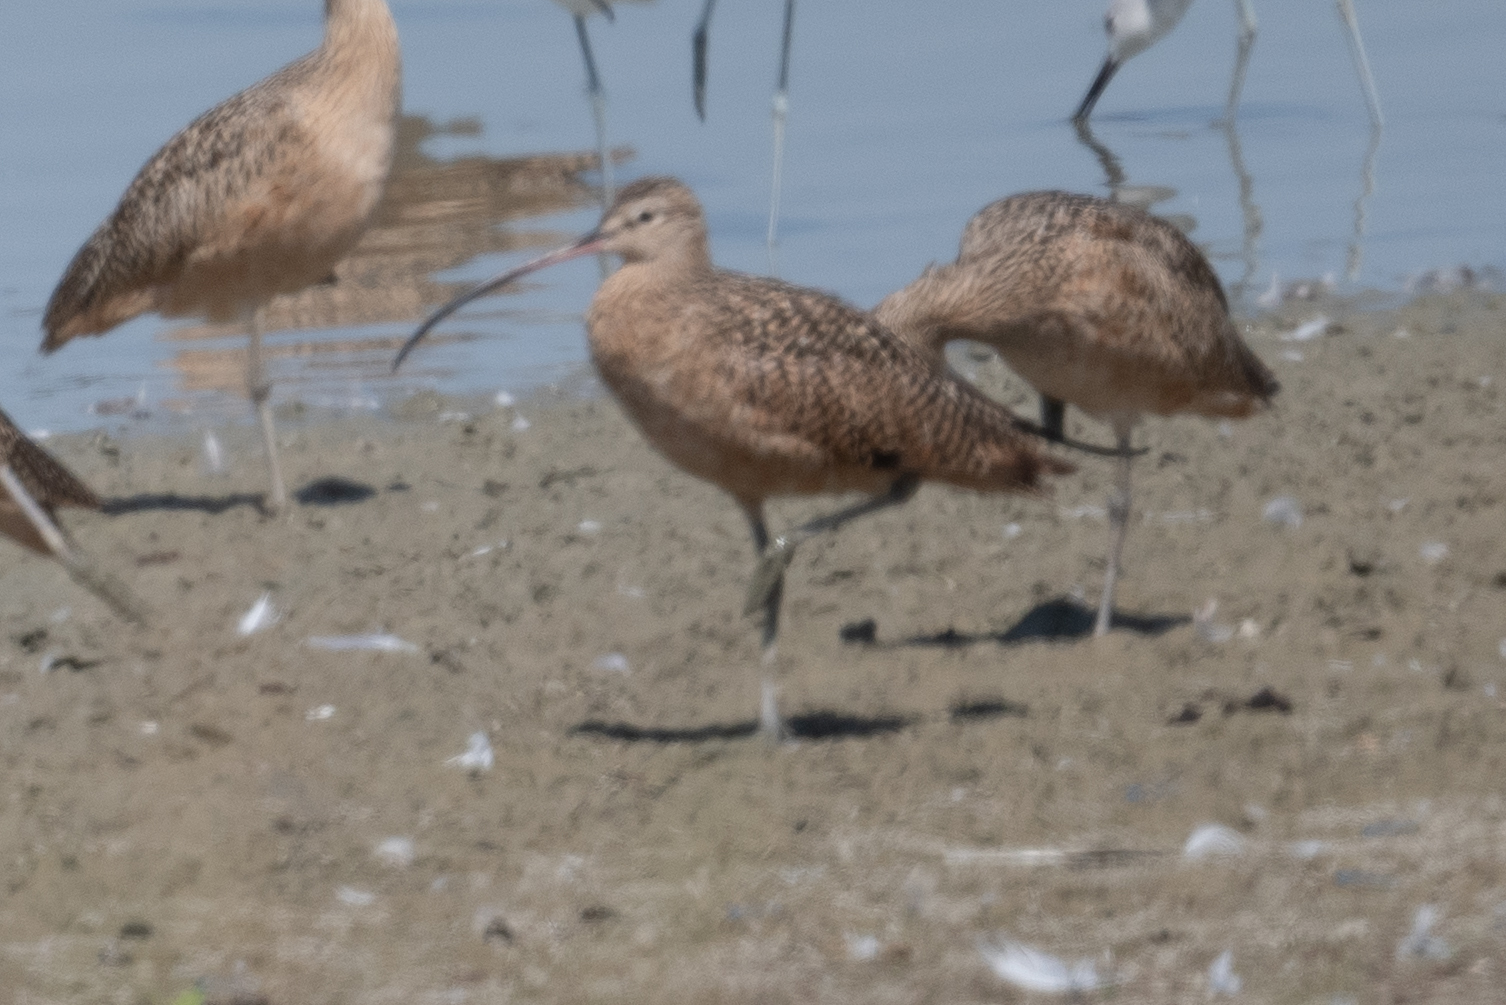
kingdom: Animalia
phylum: Chordata
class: Aves
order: Charadriiformes
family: Scolopacidae
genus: Numenius
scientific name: Numenius americanus
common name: Long-billed curlew
